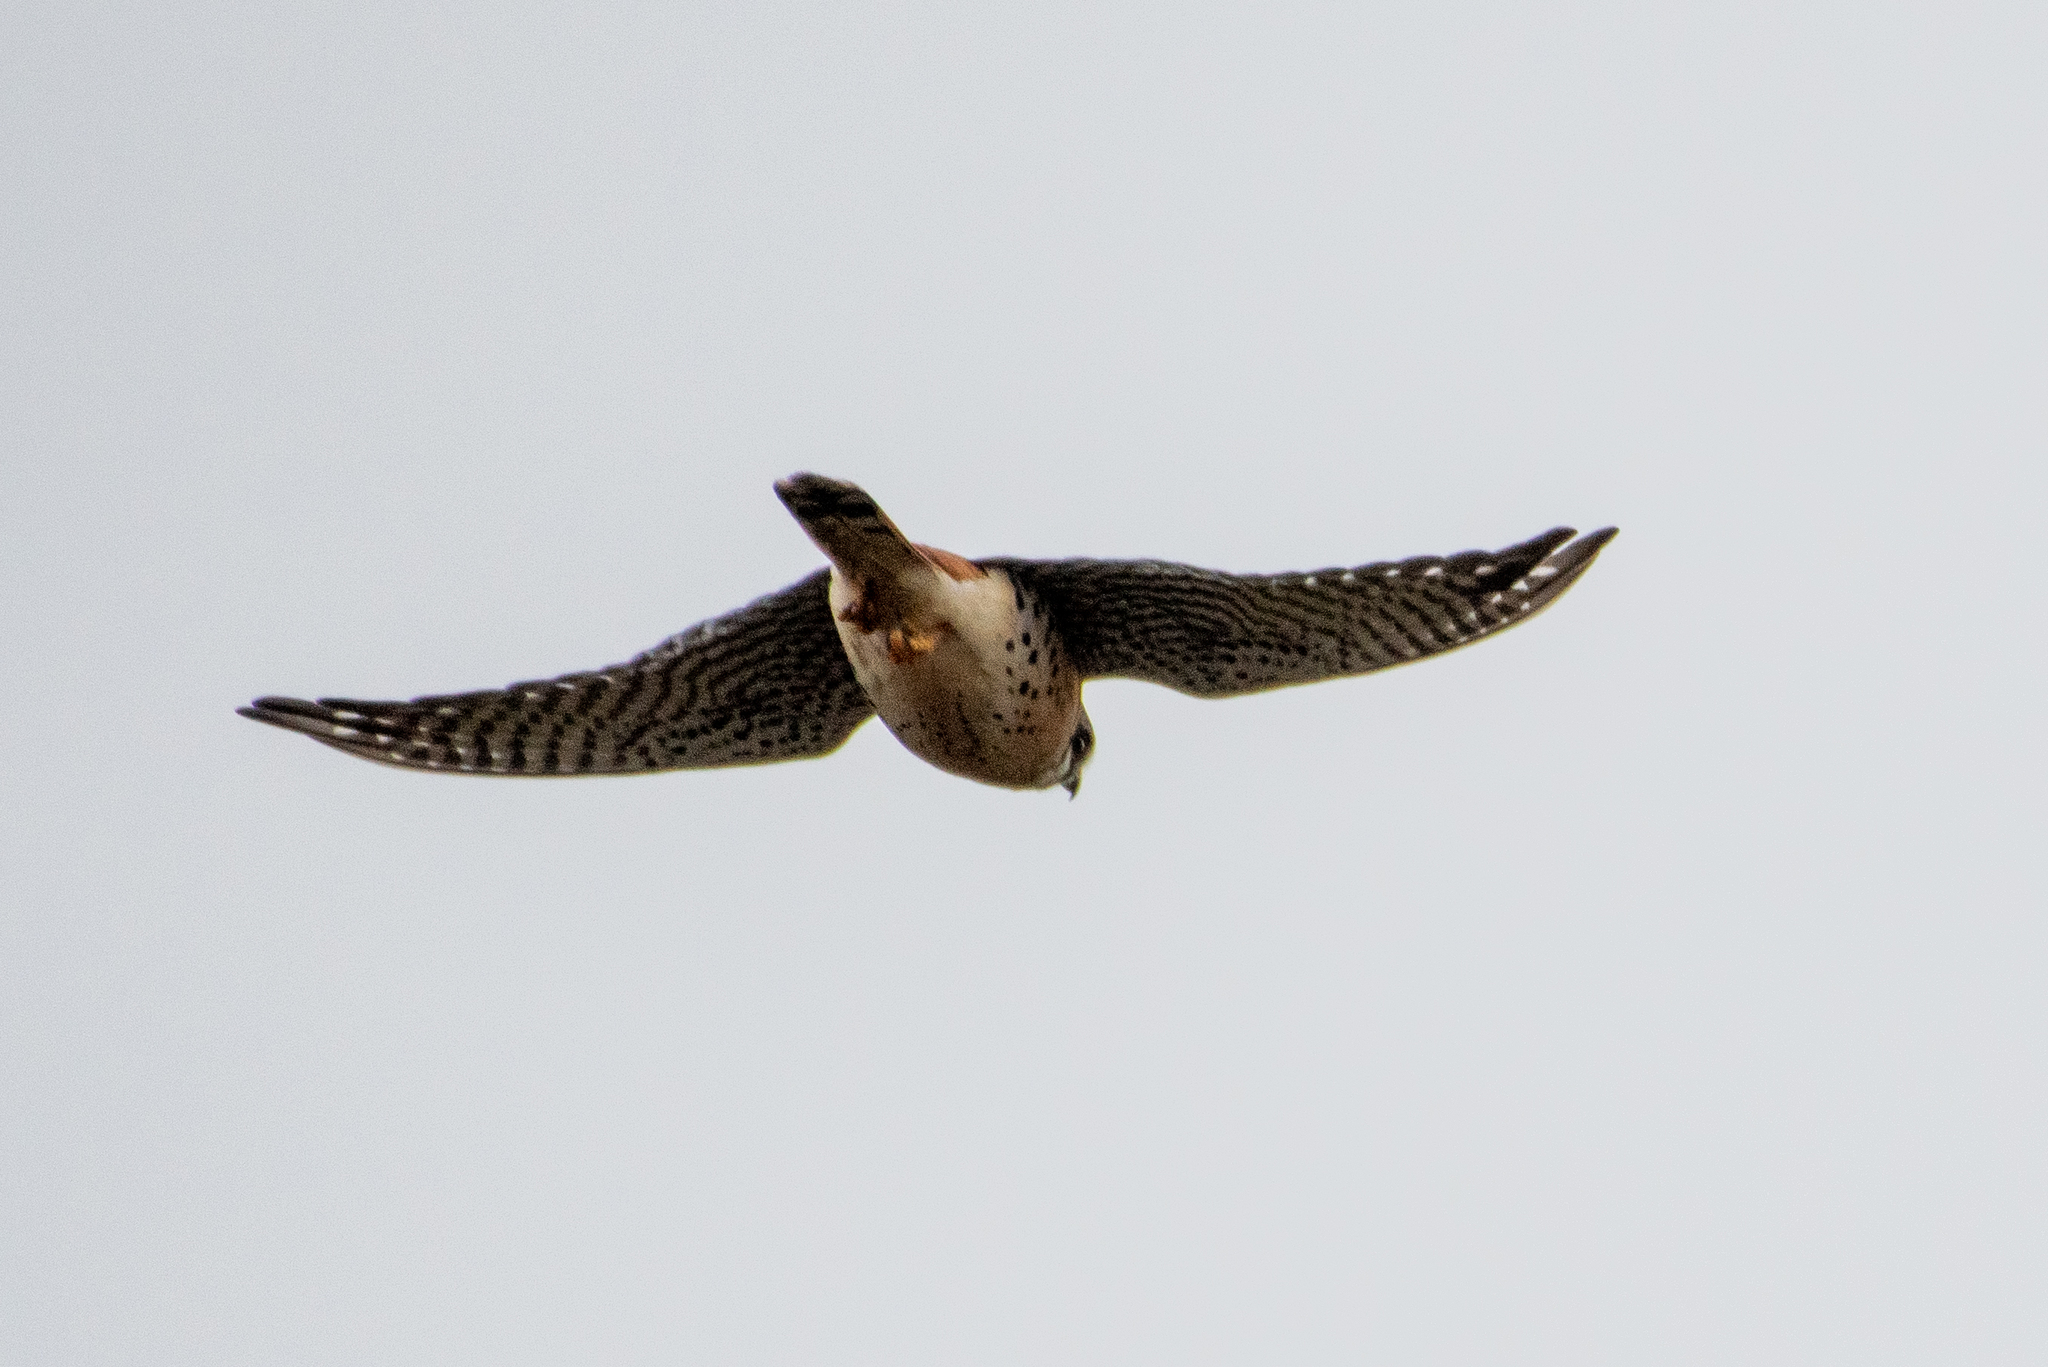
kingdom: Animalia
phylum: Chordata
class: Aves
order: Falconiformes
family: Falconidae
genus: Falco
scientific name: Falco sparverius
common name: American kestrel
